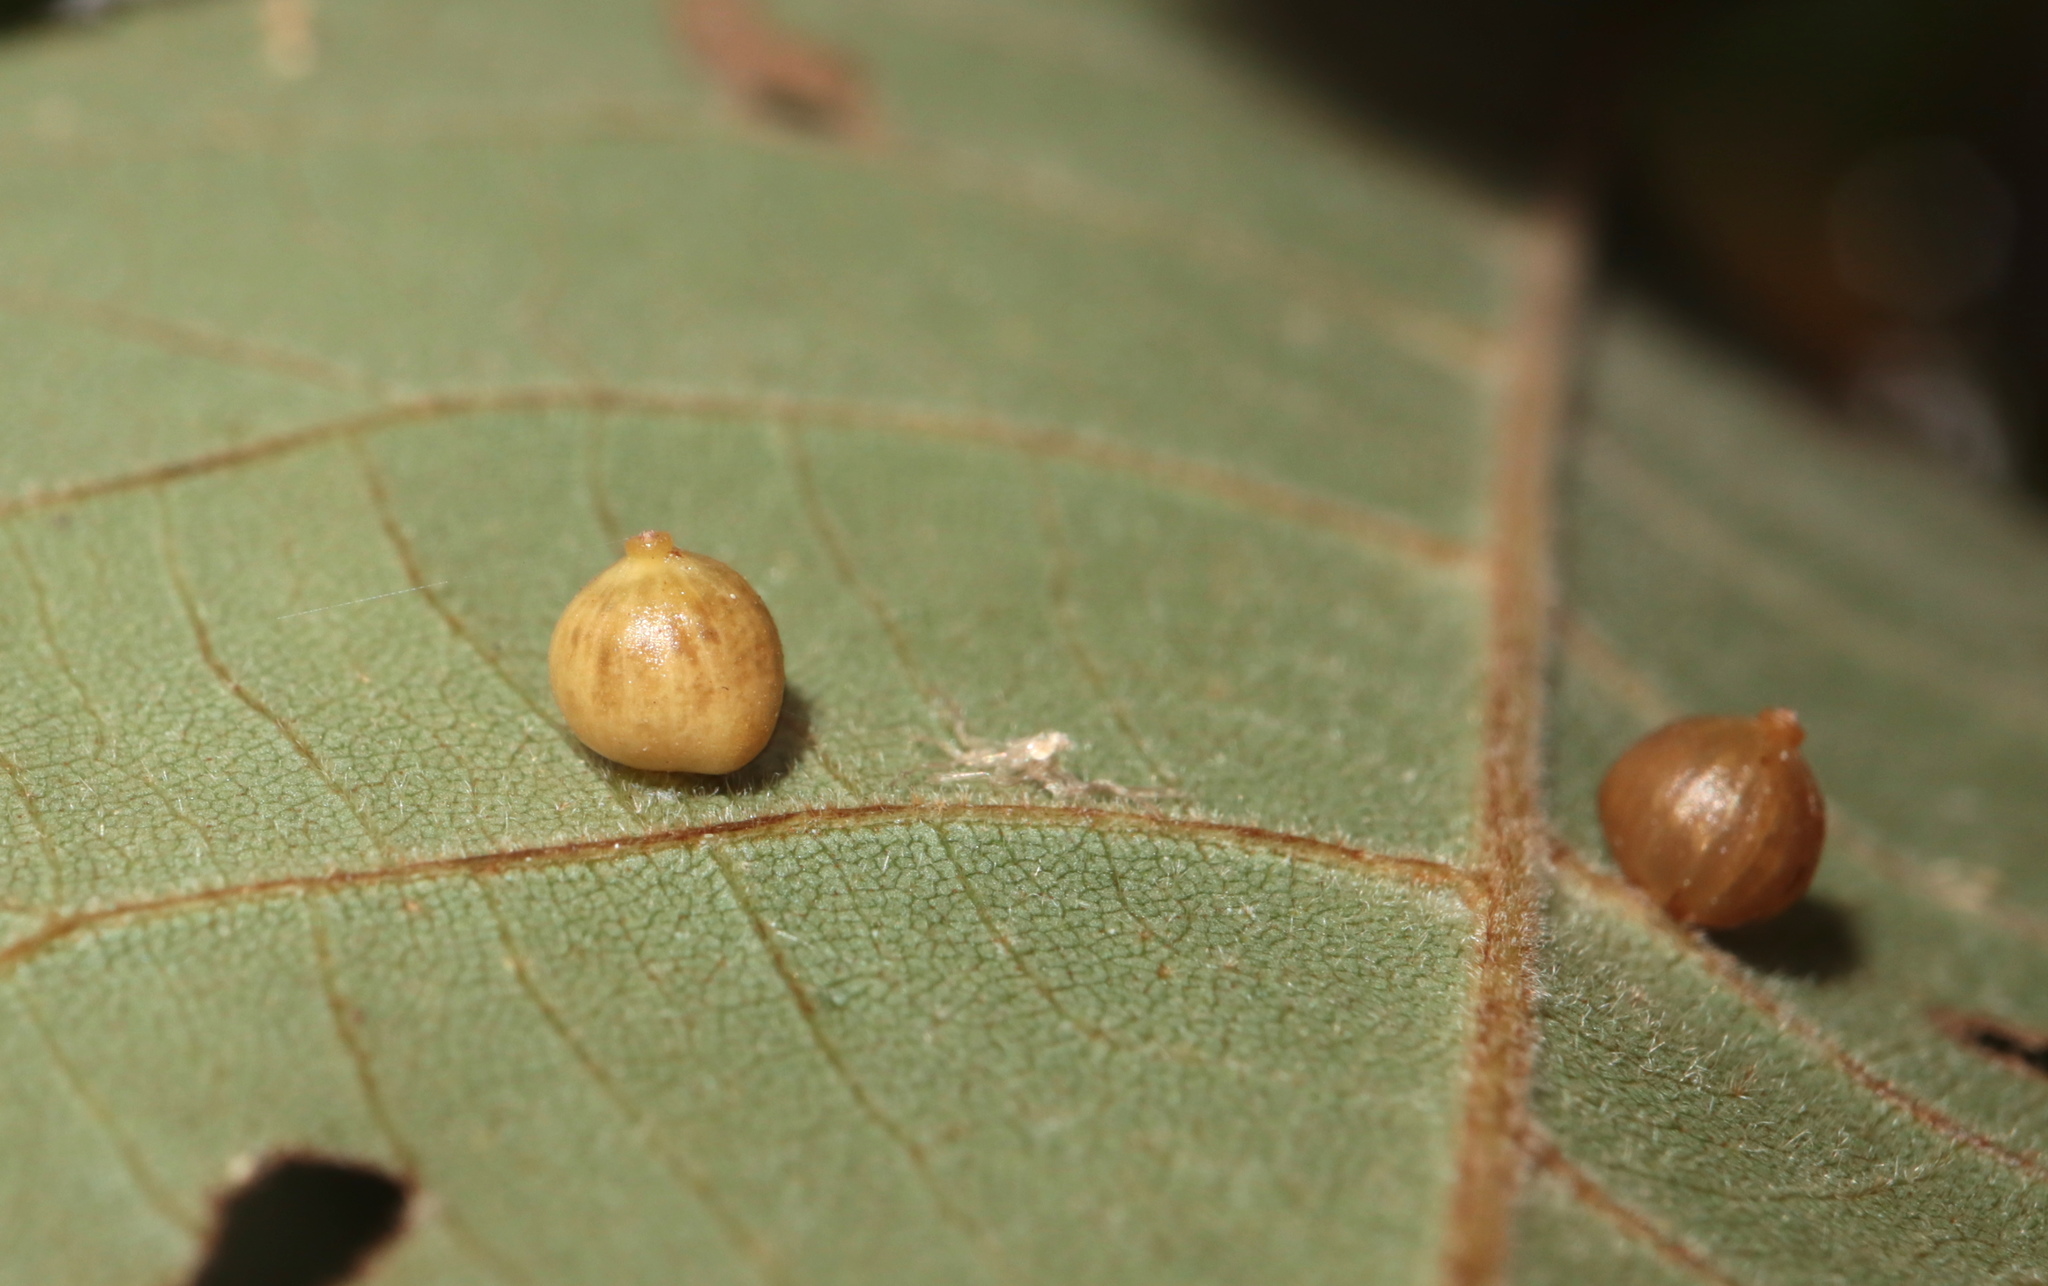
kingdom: Animalia
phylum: Arthropoda
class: Insecta
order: Diptera
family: Cecidomyiidae
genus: Caryomyia
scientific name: Caryomyia caryae
